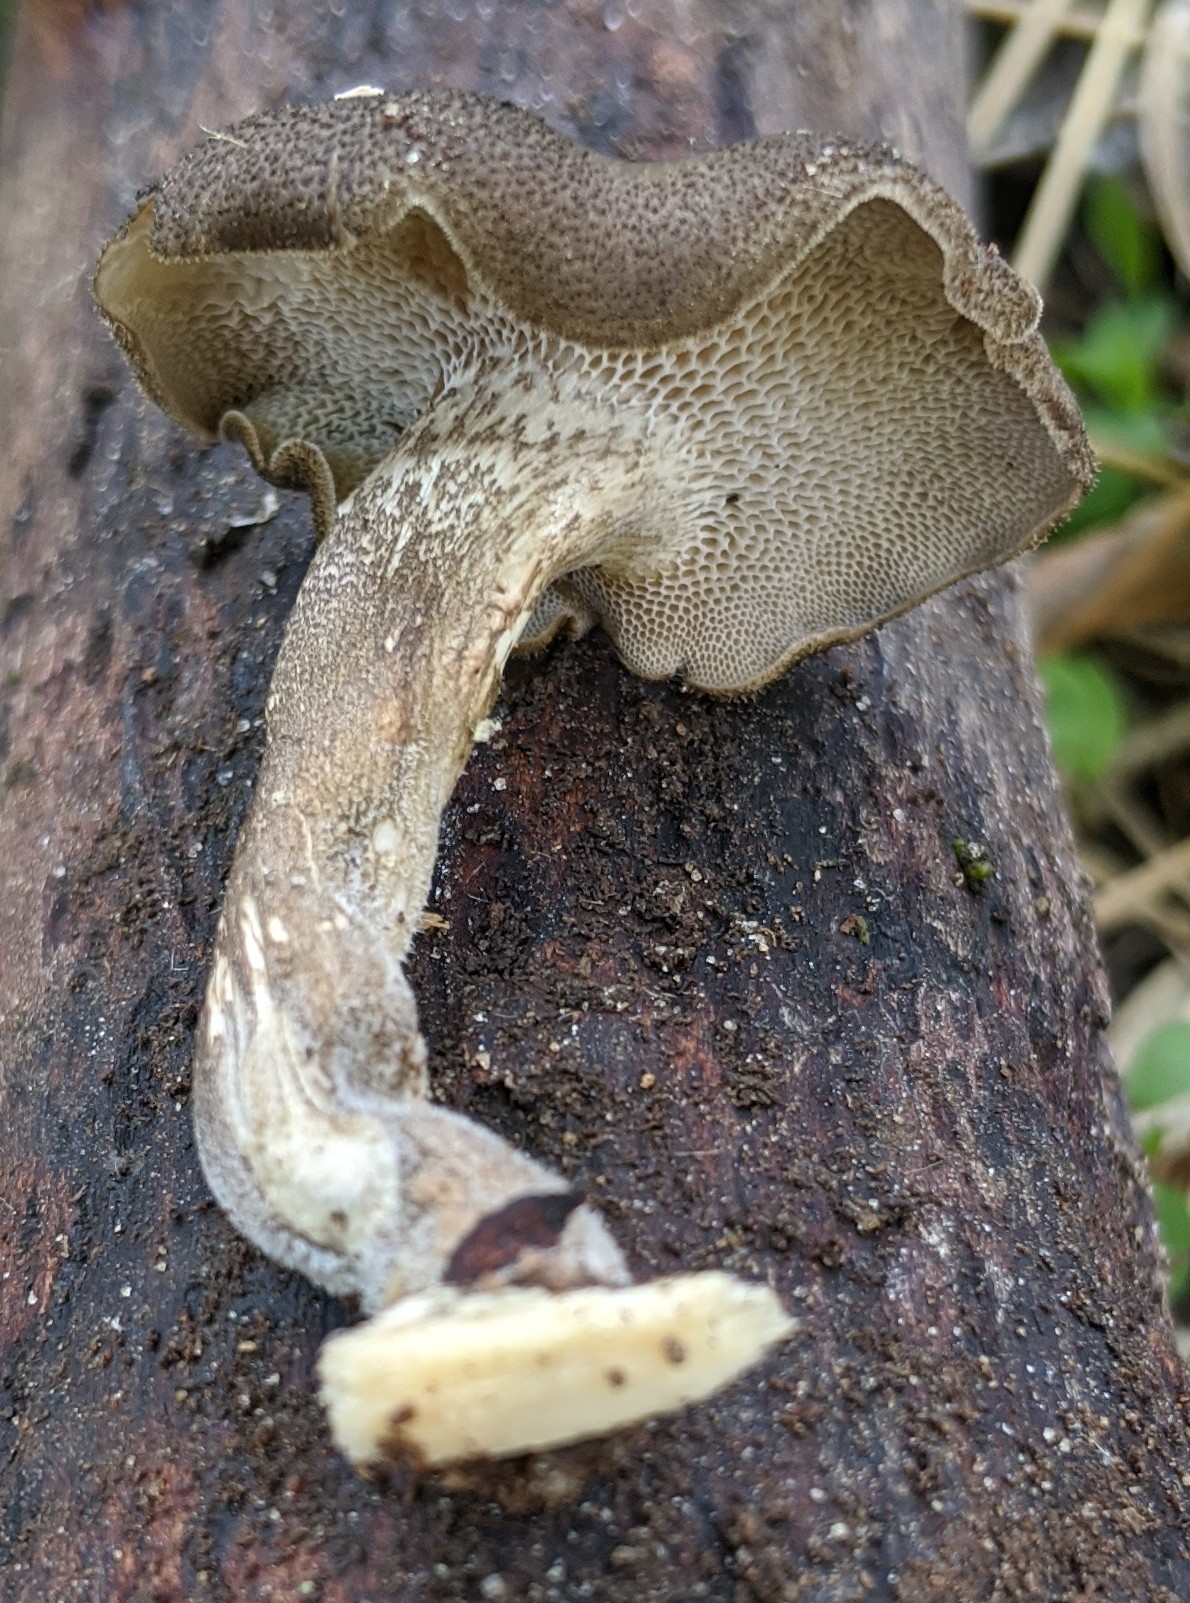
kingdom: Fungi
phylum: Basidiomycota
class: Agaricomycetes
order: Polyporales
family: Polyporaceae
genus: Lentinus
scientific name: Lentinus arcularius
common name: Spring polypore
